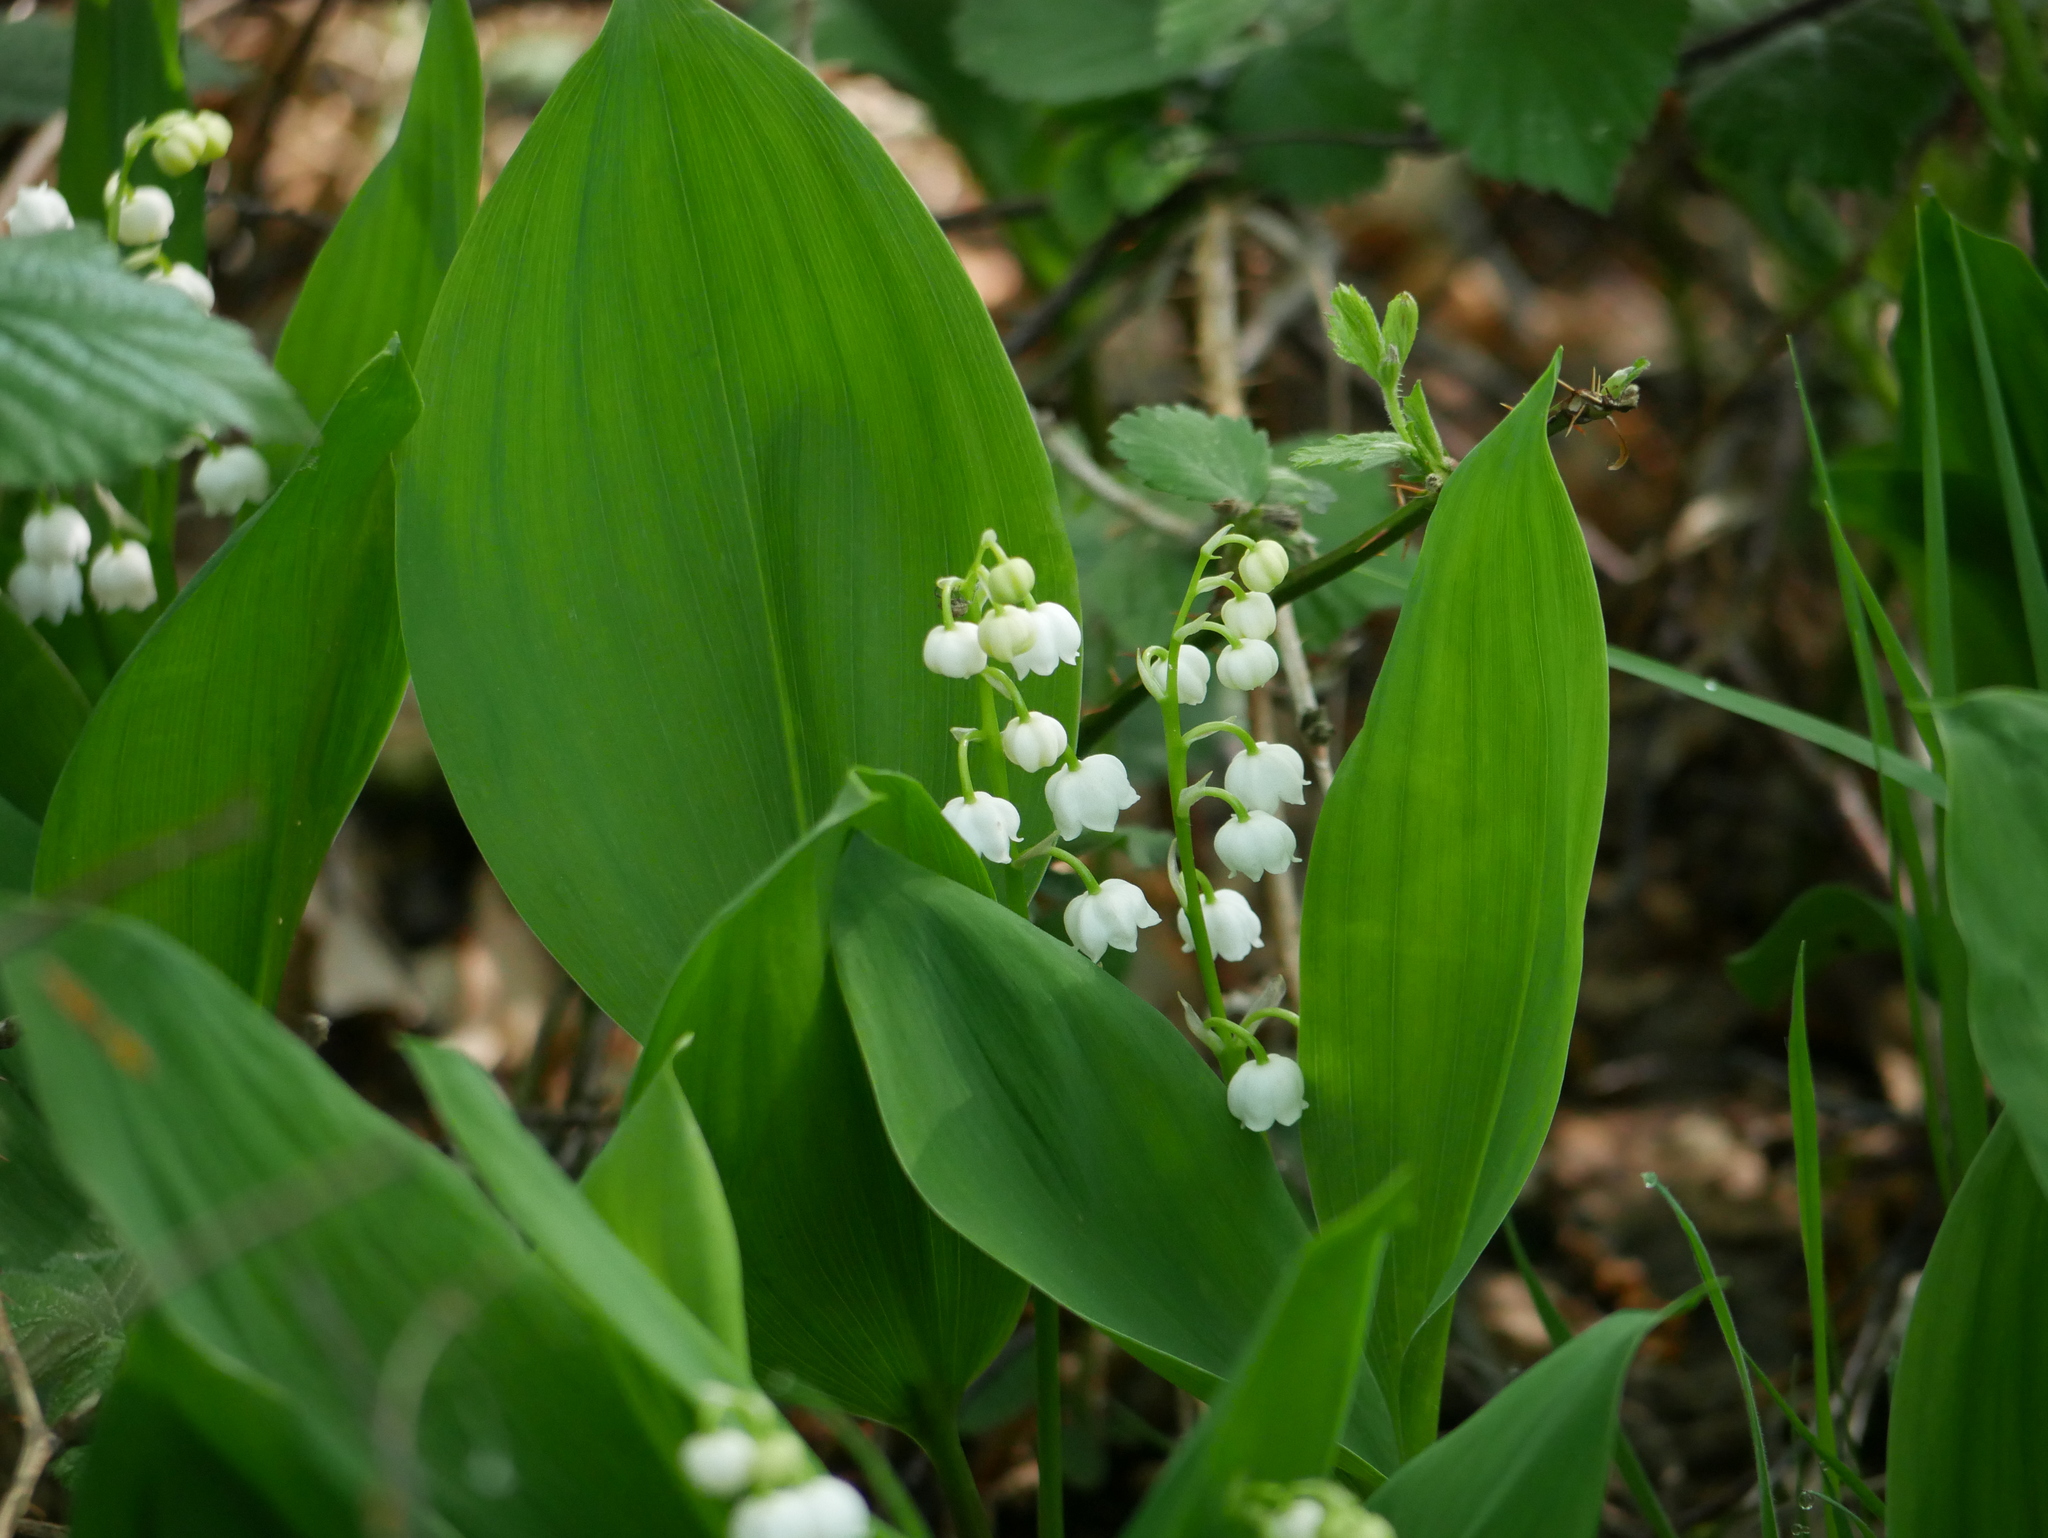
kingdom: Plantae
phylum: Tracheophyta
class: Liliopsida
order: Asparagales
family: Asparagaceae
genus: Convallaria
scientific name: Convallaria majalis
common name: Lily-of-the-valley
